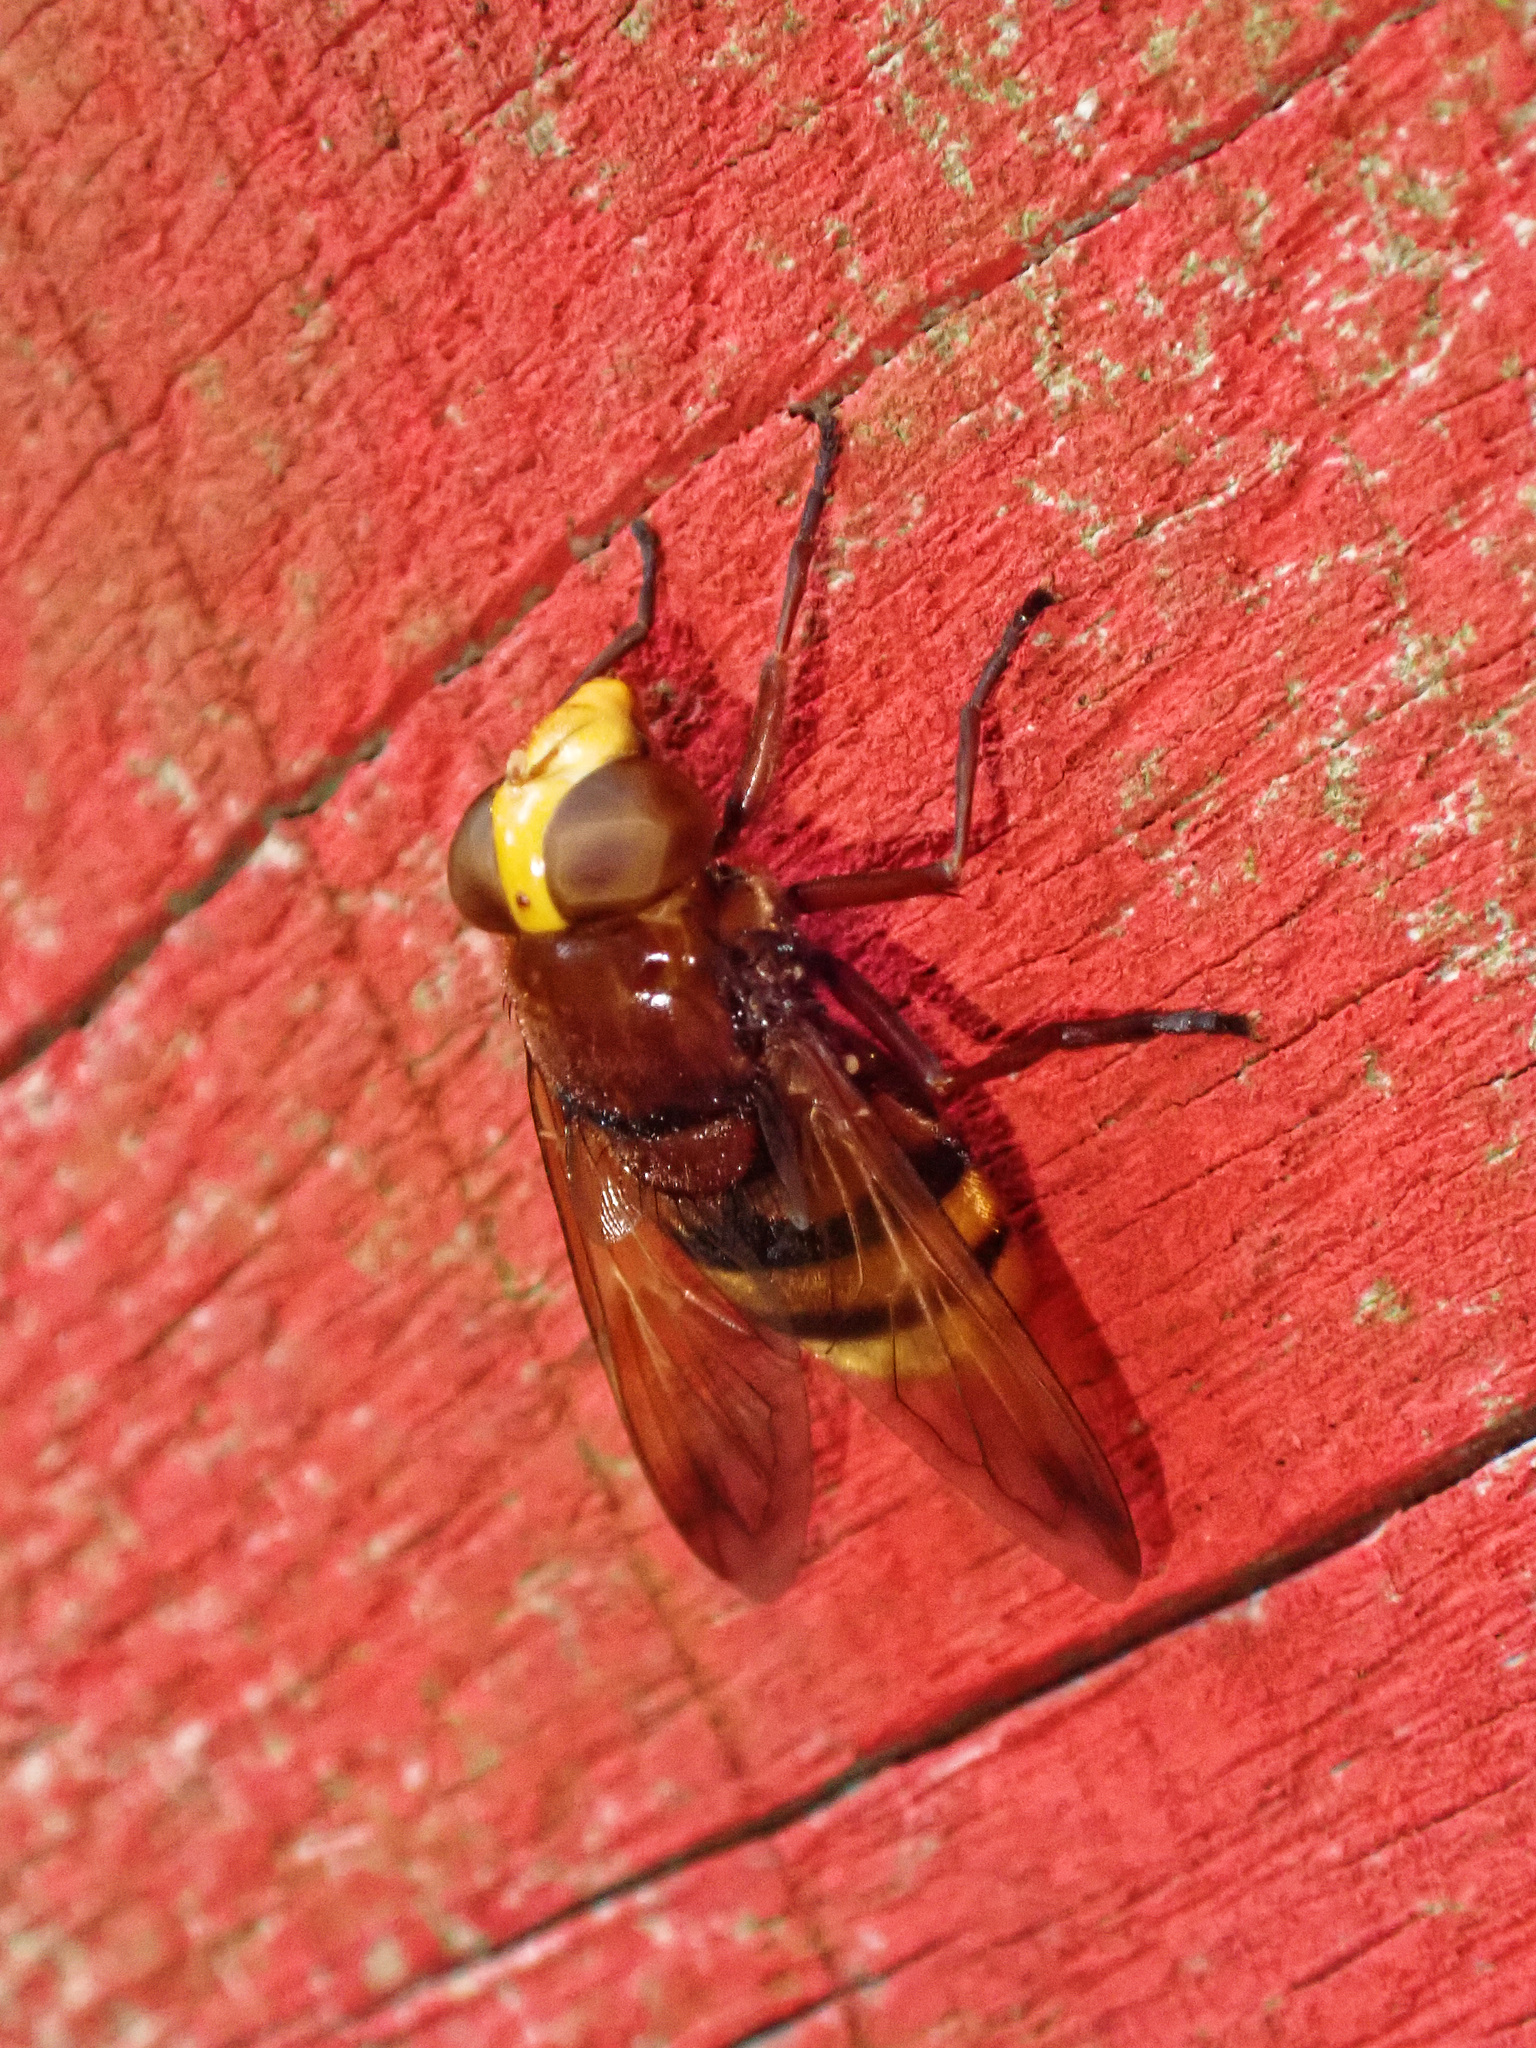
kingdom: Animalia
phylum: Arthropoda
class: Insecta
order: Diptera
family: Syrphidae
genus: Volucella
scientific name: Volucella zonaria
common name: Hornet hoverfly
